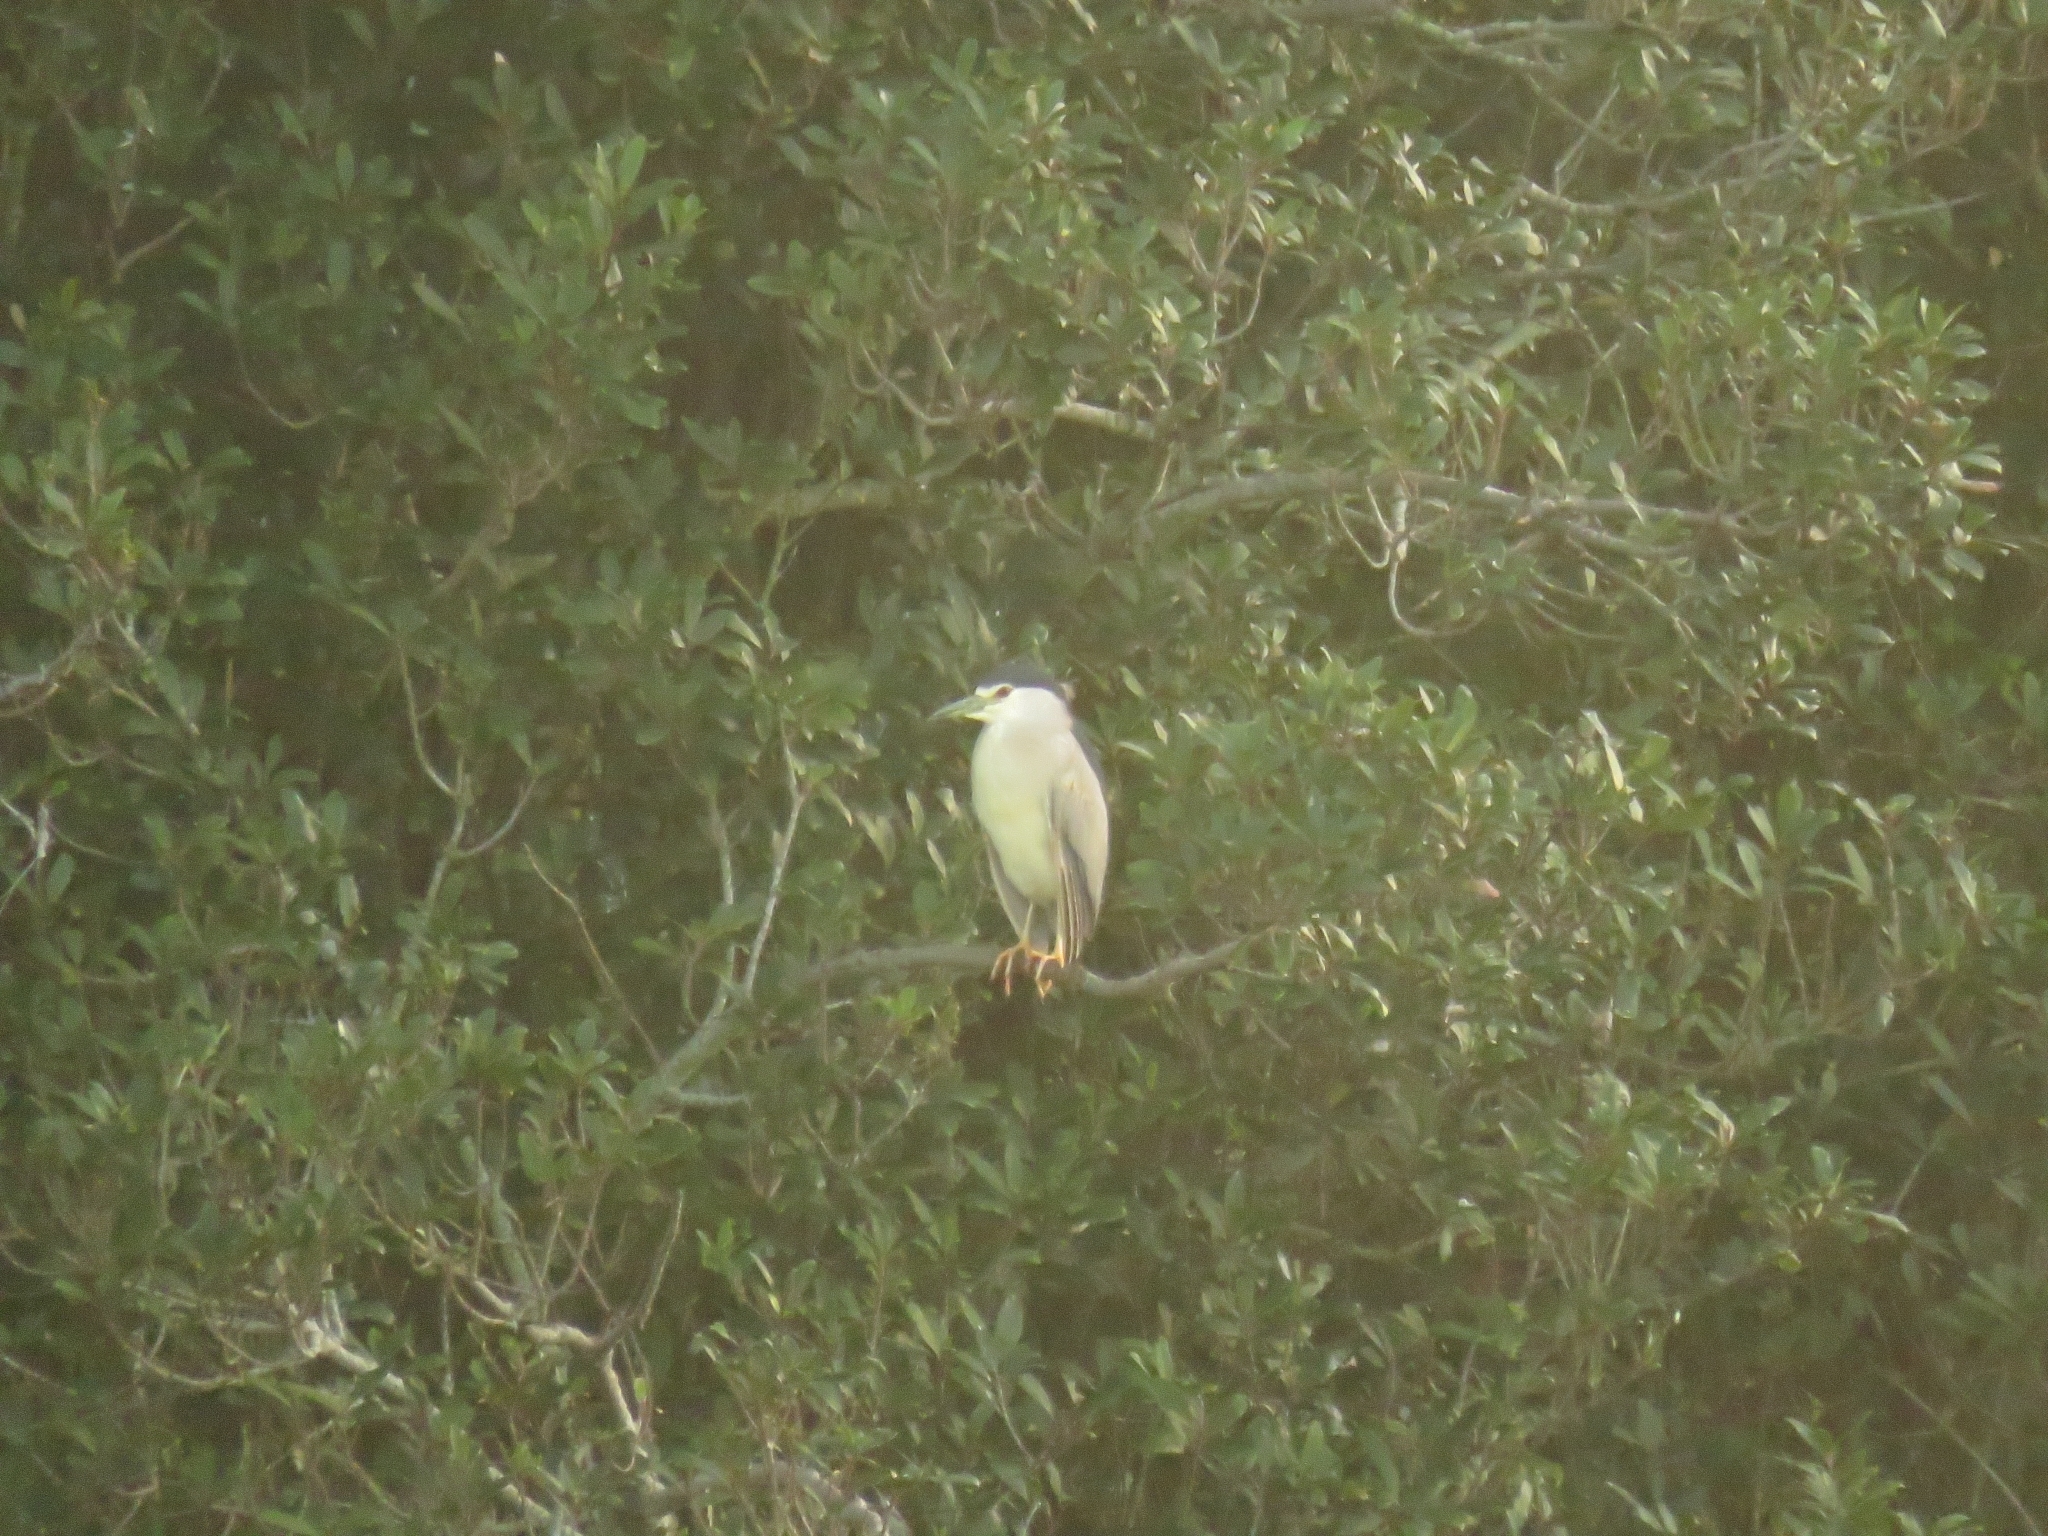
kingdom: Animalia
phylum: Chordata
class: Aves
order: Pelecaniformes
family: Ardeidae
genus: Nycticorax
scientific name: Nycticorax nycticorax
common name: Black-crowned night heron
